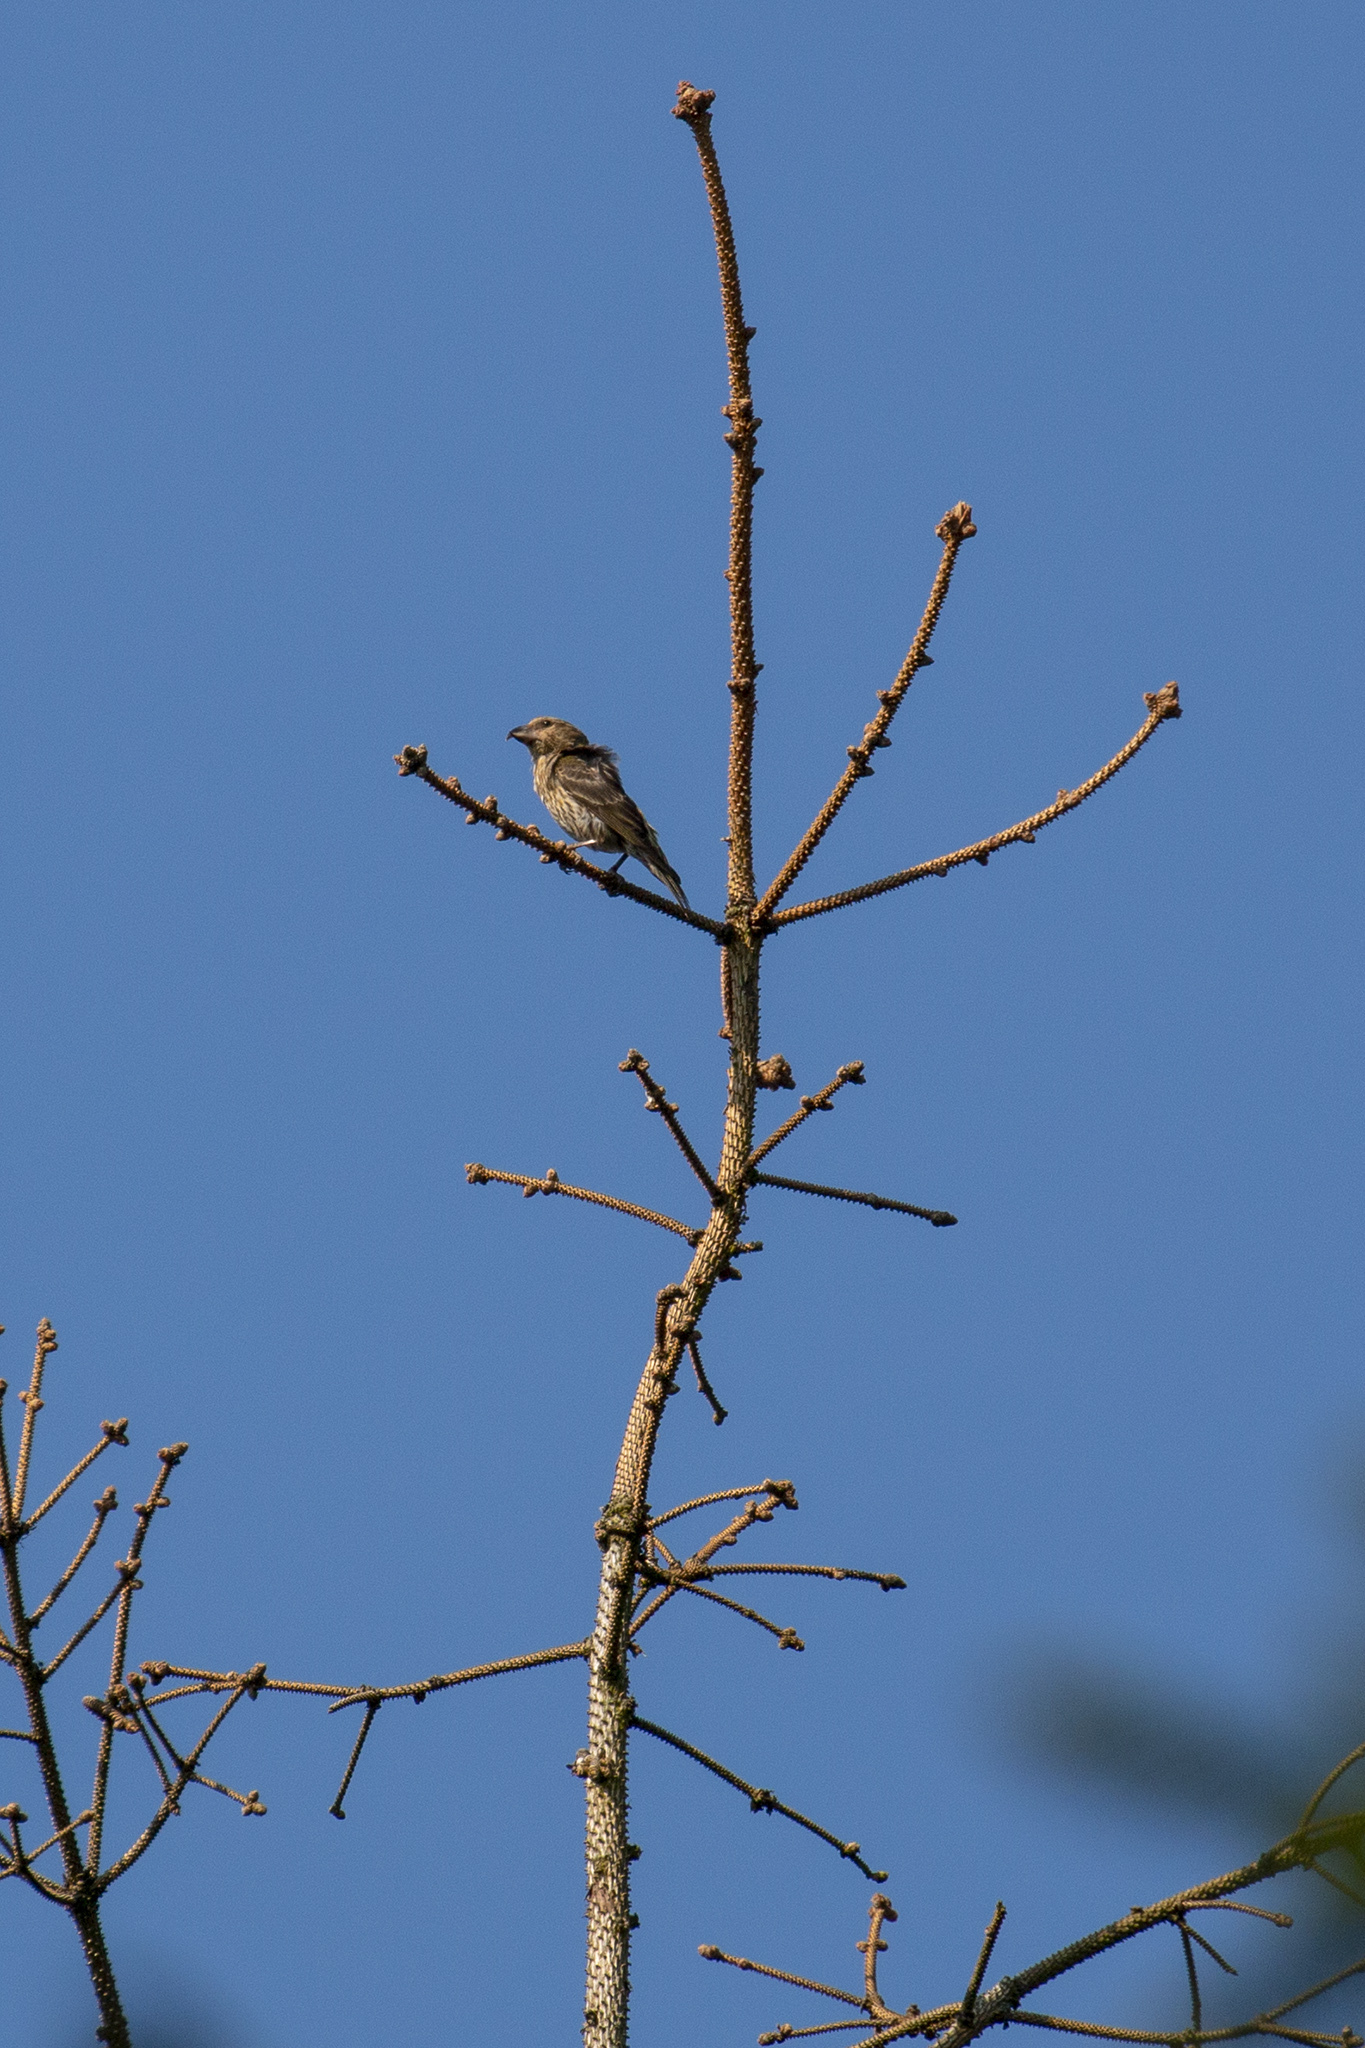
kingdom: Animalia
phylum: Chordata
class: Aves
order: Passeriformes
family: Fringillidae
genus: Loxia
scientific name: Loxia curvirostra
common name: Red crossbill
